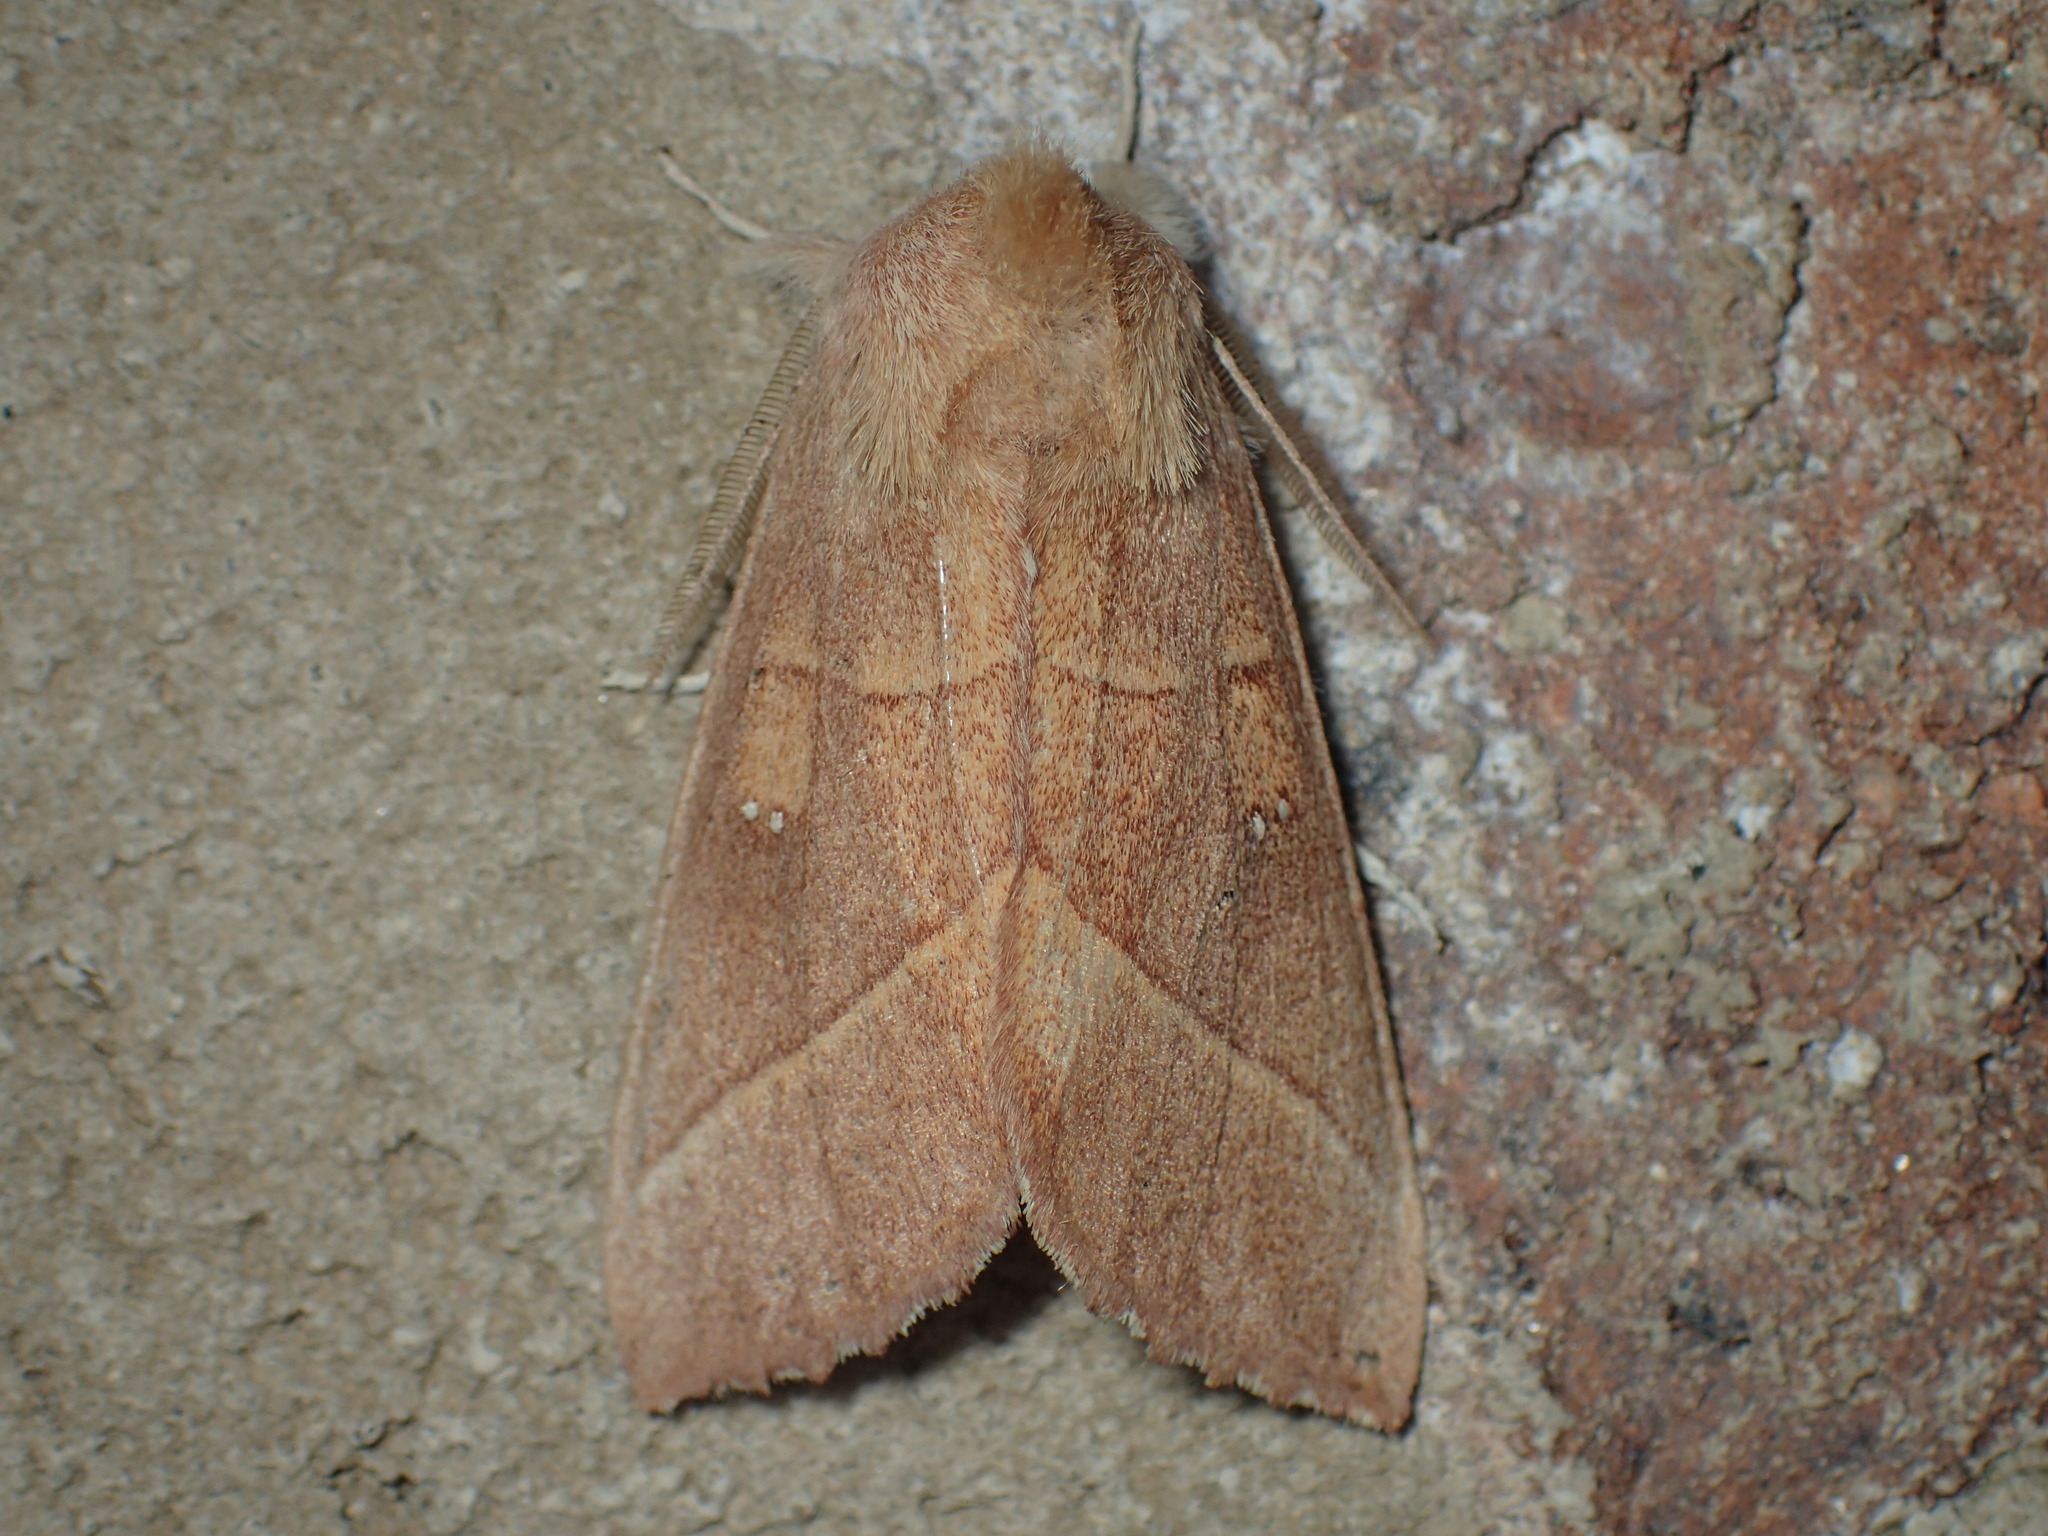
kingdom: Animalia
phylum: Arthropoda
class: Insecta
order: Lepidoptera
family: Notodontidae
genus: Nadata
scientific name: Nadata gibbosa
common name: White-dotted prominent
